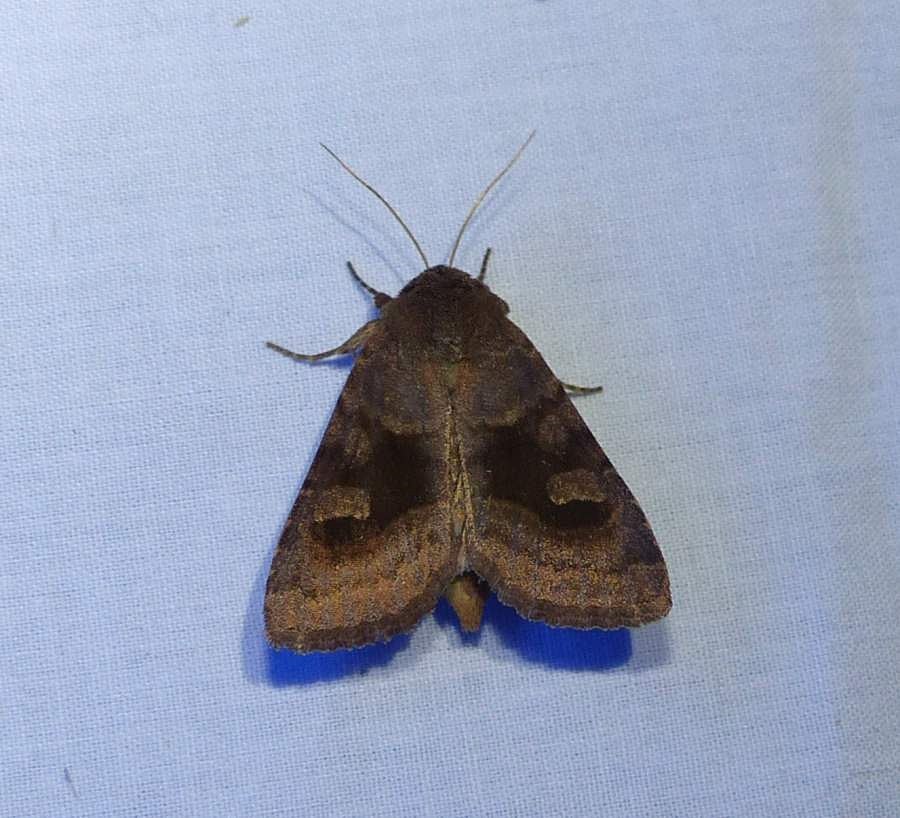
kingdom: Animalia
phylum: Arthropoda
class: Insecta
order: Lepidoptera
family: Noctuidae
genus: Nephelodes
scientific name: Nephelodes minians
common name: Bronzed cutworm
